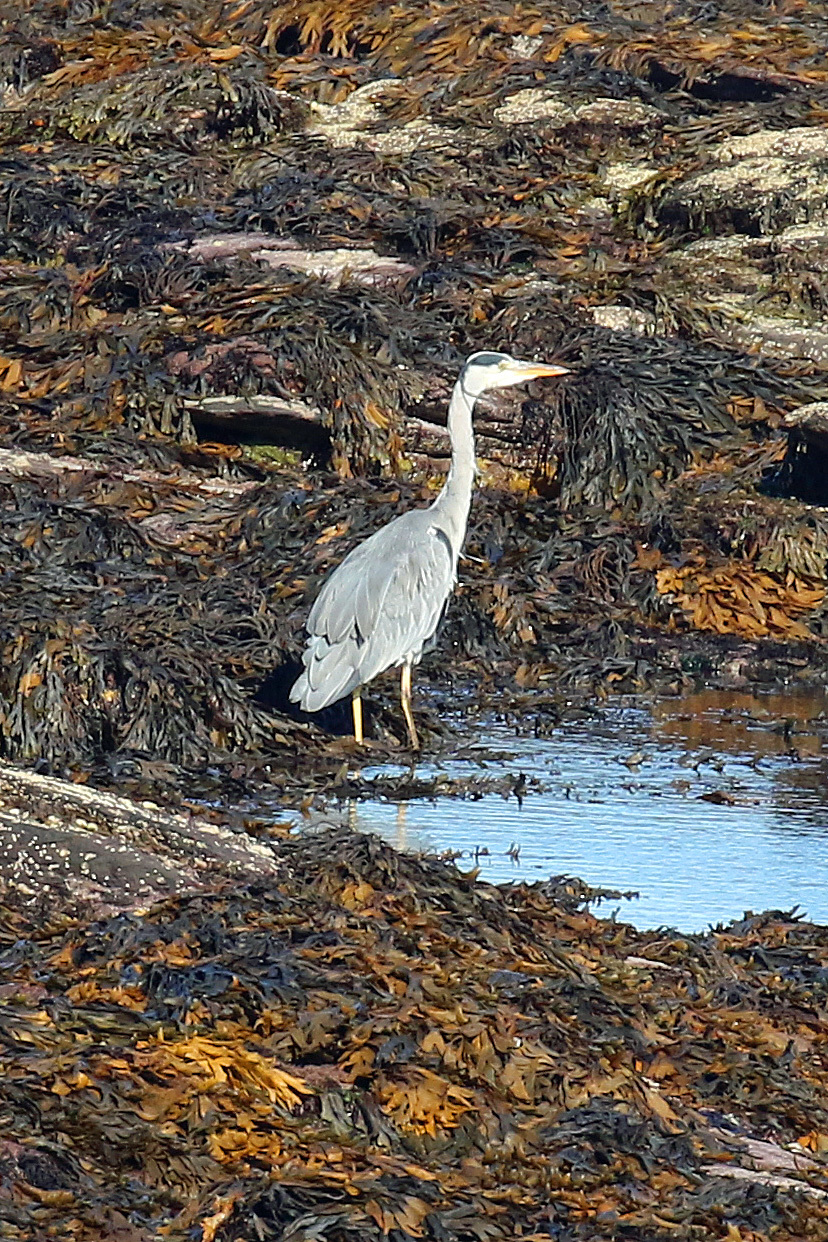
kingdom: Animalia
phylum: Chordata
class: Aves
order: Pelecaniformes
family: Ardeidae
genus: Ardea
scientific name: Ardea cinerea
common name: Grey heron
